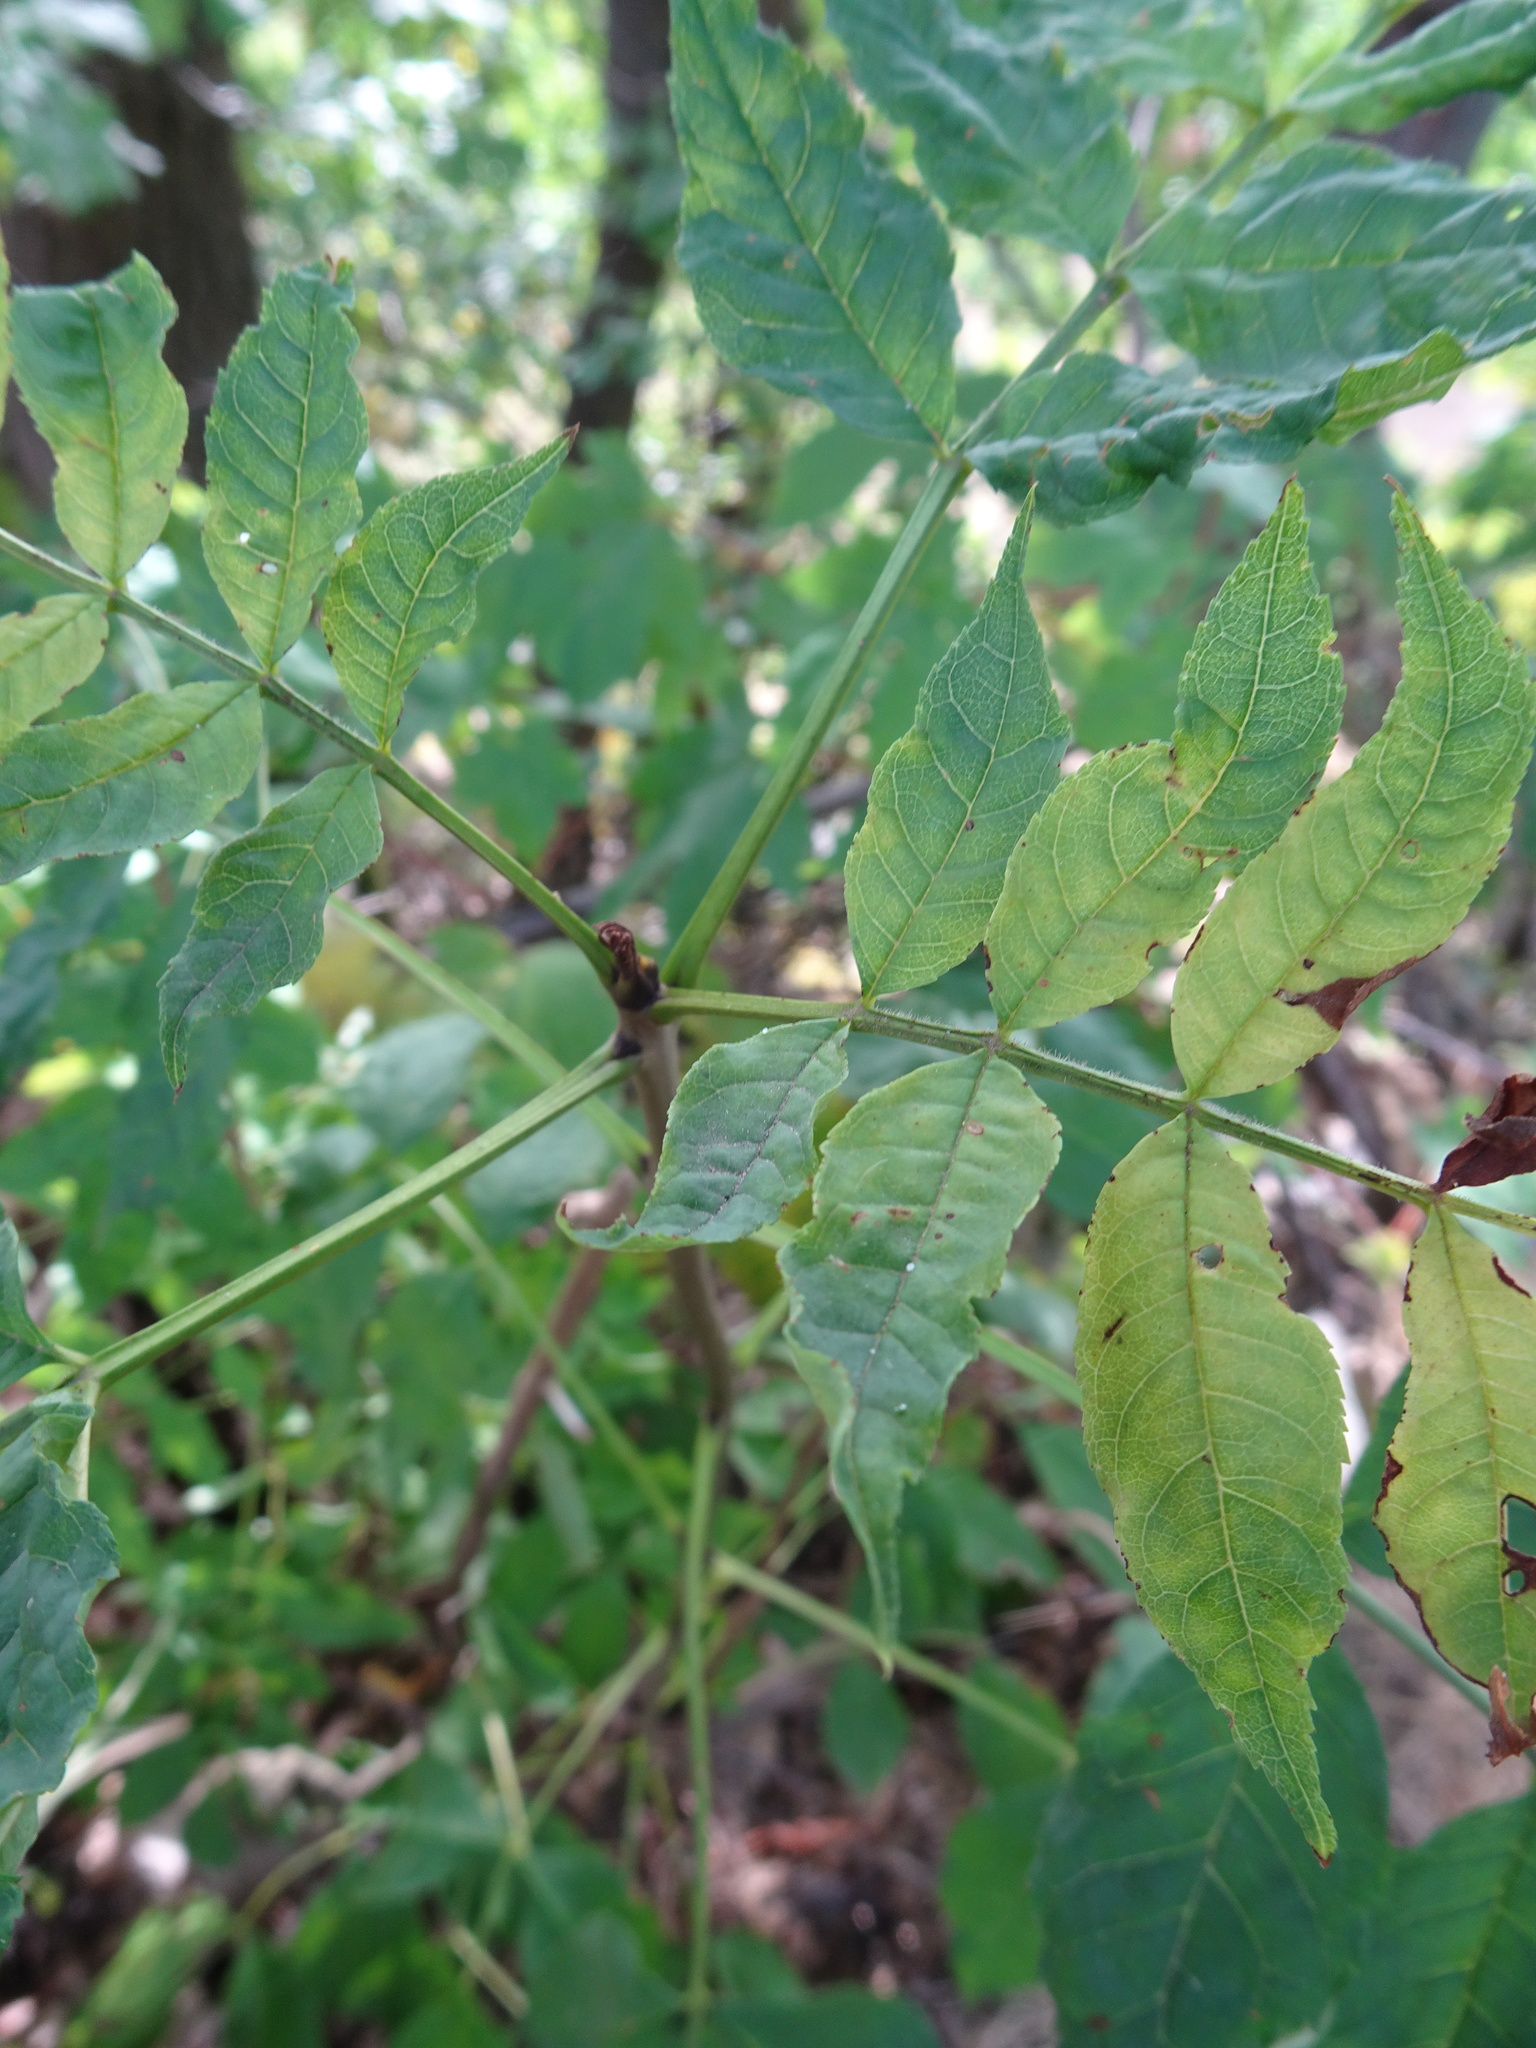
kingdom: Plantae
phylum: Tracheophyta
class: Magnoliopsida
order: Lamiales
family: Oleaceae
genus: Fraxinus
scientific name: Fraxinus excelsior
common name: European ash
